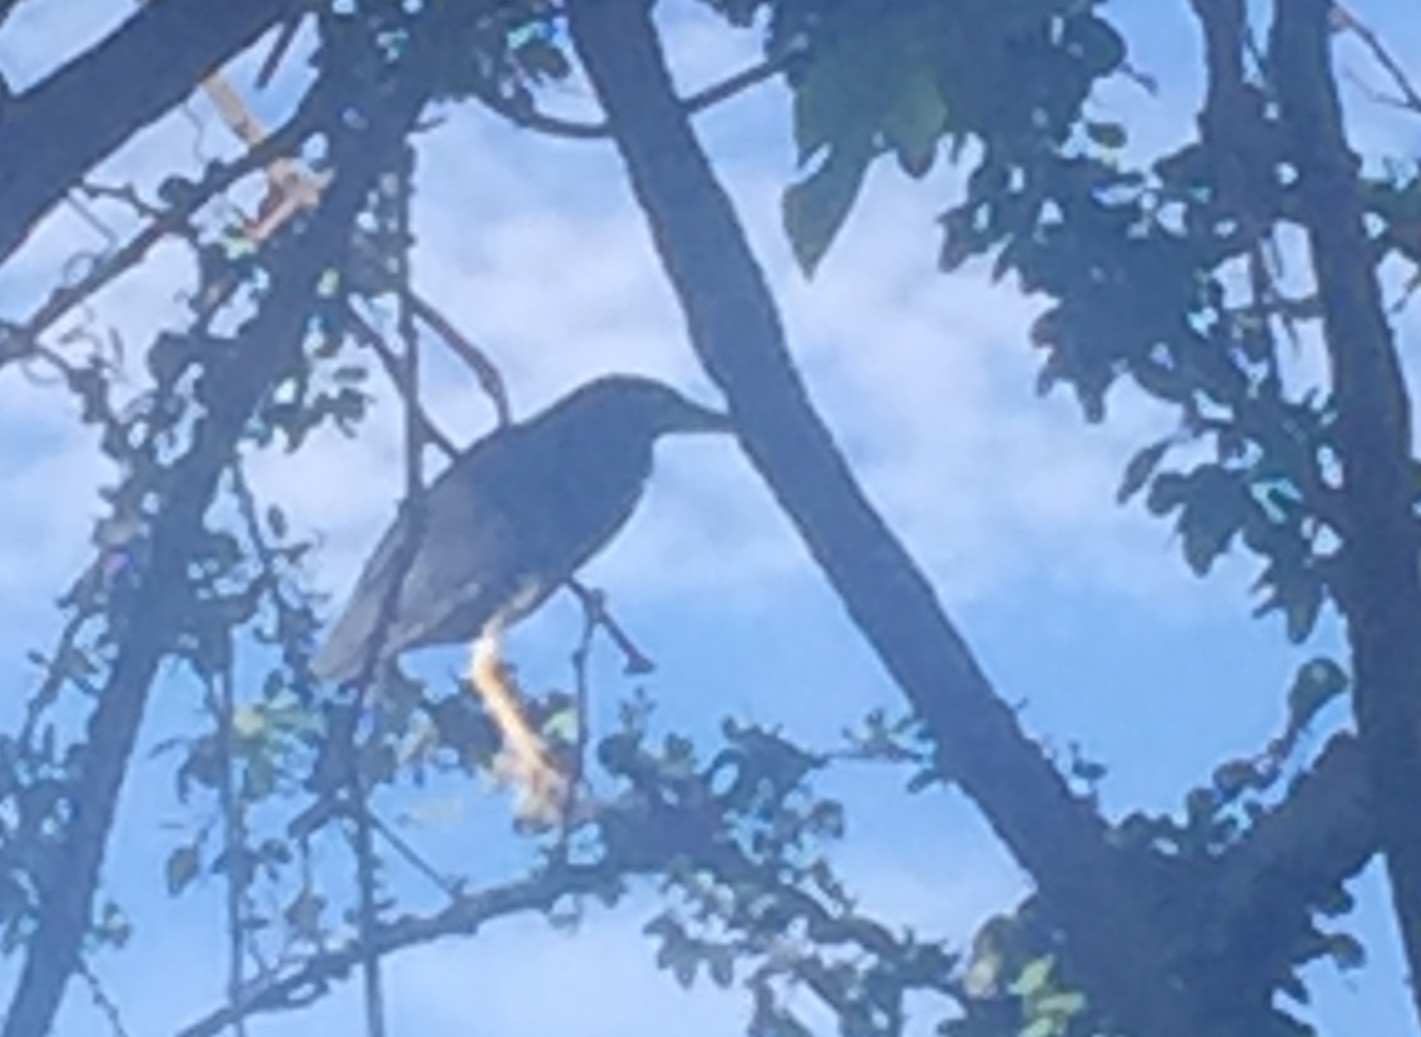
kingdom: Animalia
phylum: Chordata
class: Aves
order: Pelecaniformes
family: Ardeidae
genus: Butorides
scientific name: Butorides virescens
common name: Green heron
